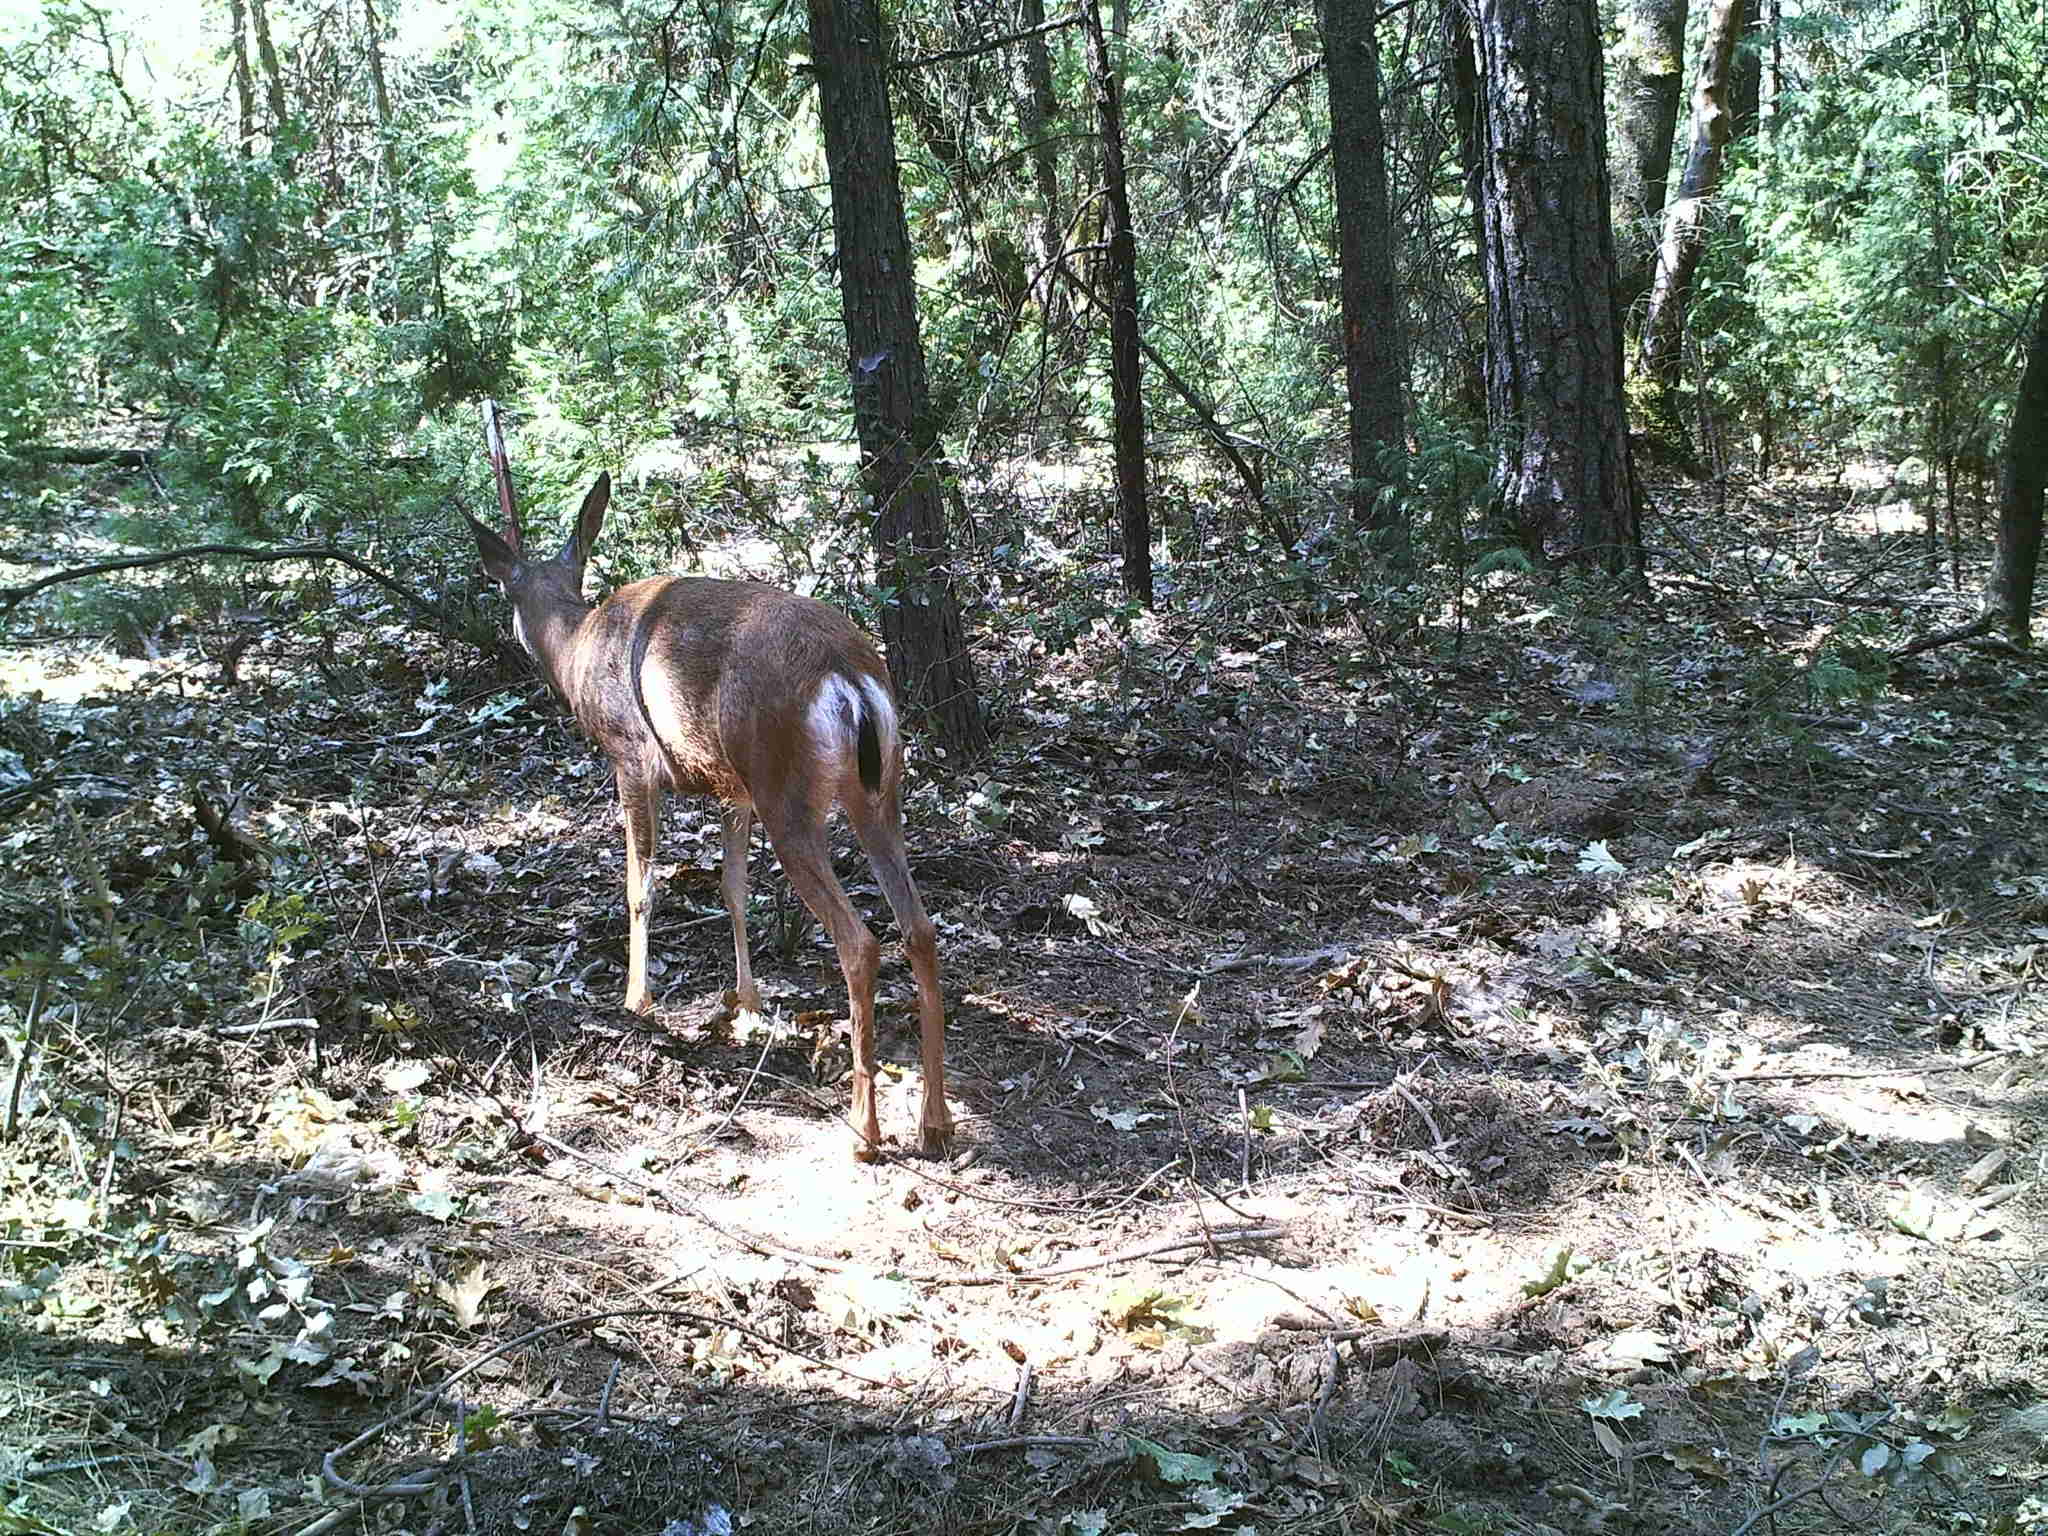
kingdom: Animalia
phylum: Chordata
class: Mammalia
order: Artiodactyla
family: Cervidae
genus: Odocoileus
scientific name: Odocoileus hemionus
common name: Mule deer
